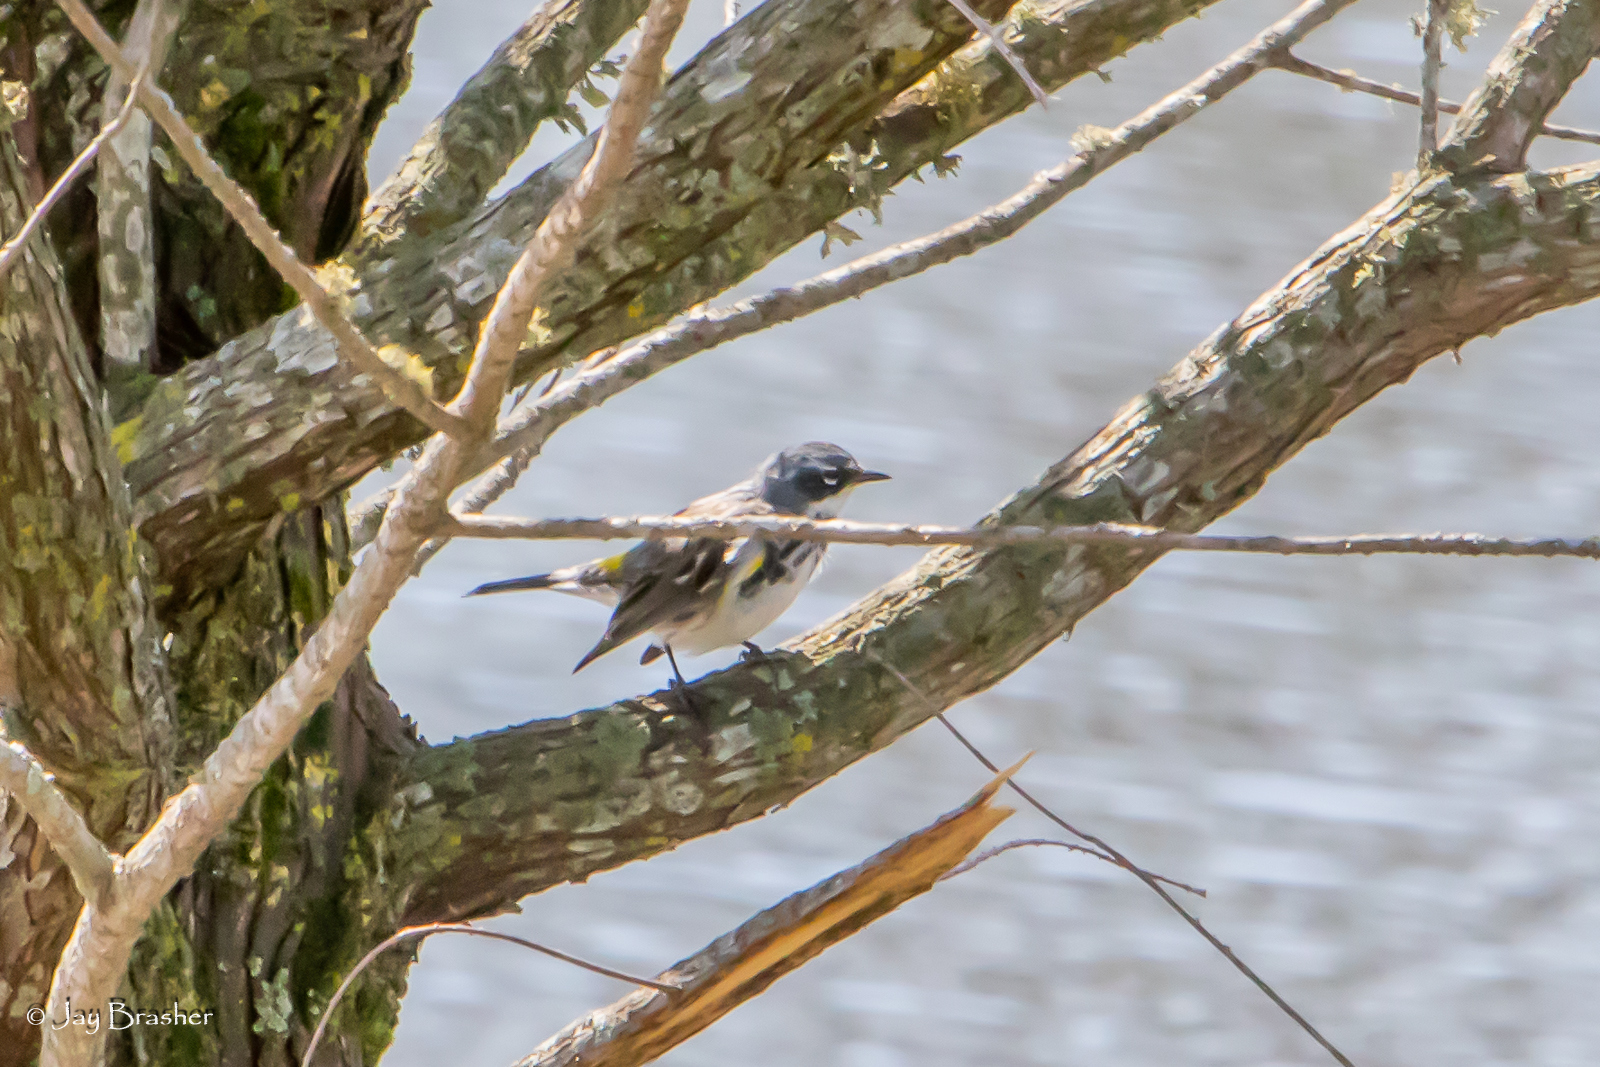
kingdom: Animalia
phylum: Chordata
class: Aves
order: Passeriformes
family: Parulidae
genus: Setophaga
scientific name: Setophaga coronata
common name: Myrtle warbler
